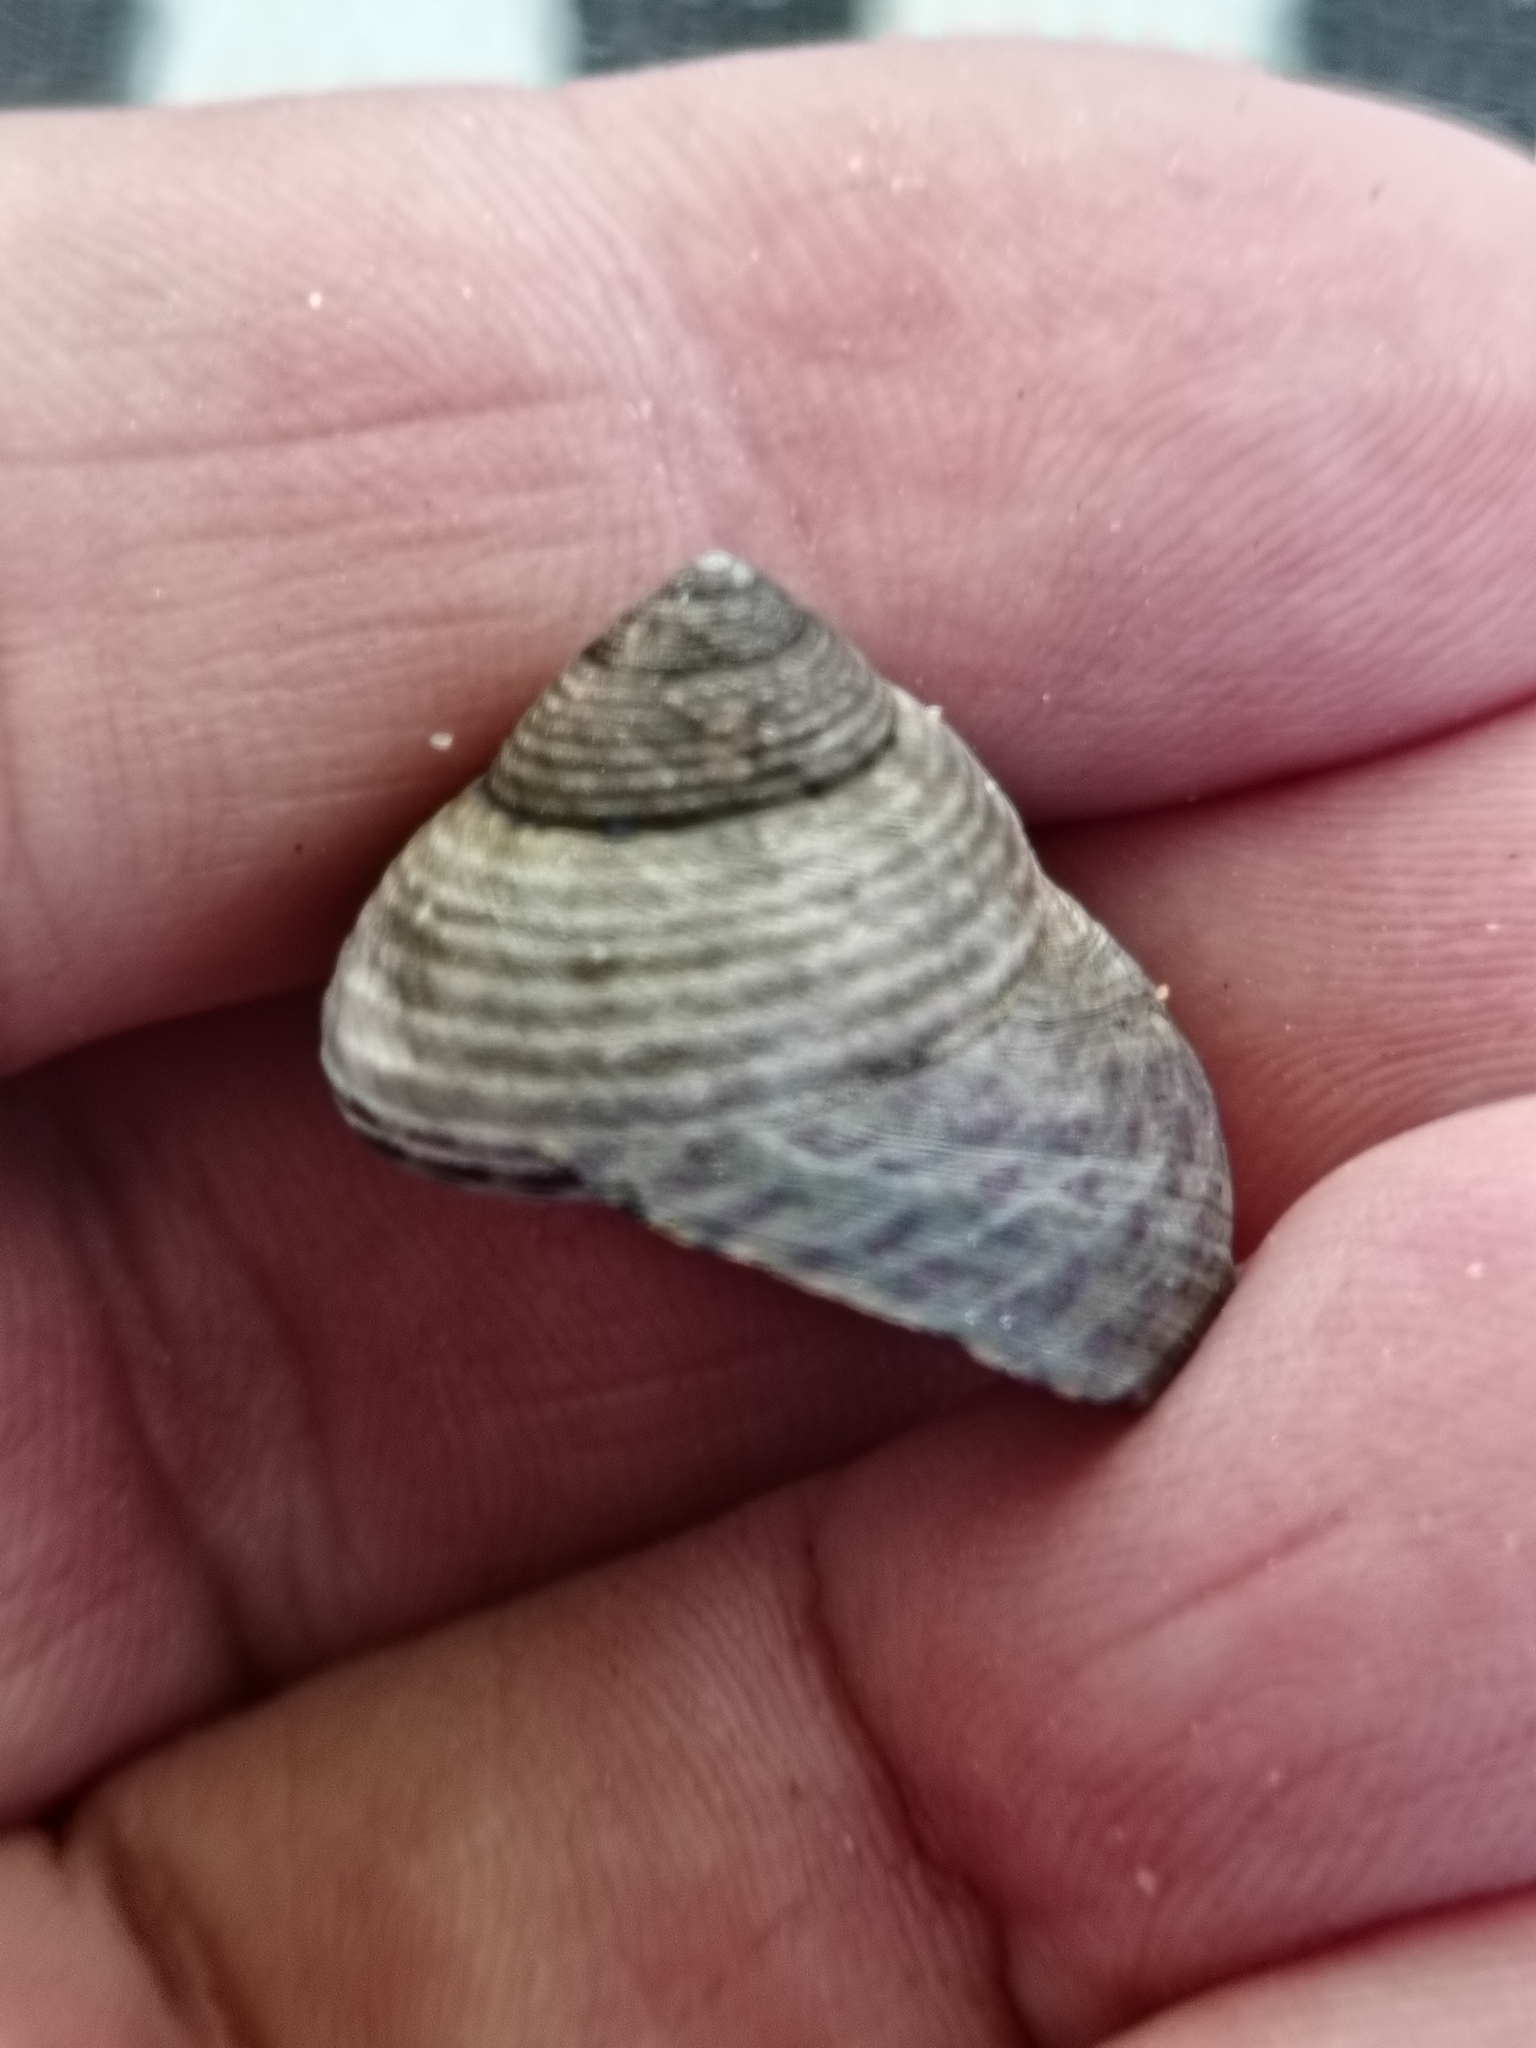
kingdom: Animalia
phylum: Mollusca
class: Gastropoda
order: Trochida
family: Trochidae
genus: Phorcus
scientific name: Phorcus turbinatus
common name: Turbinate monodont
